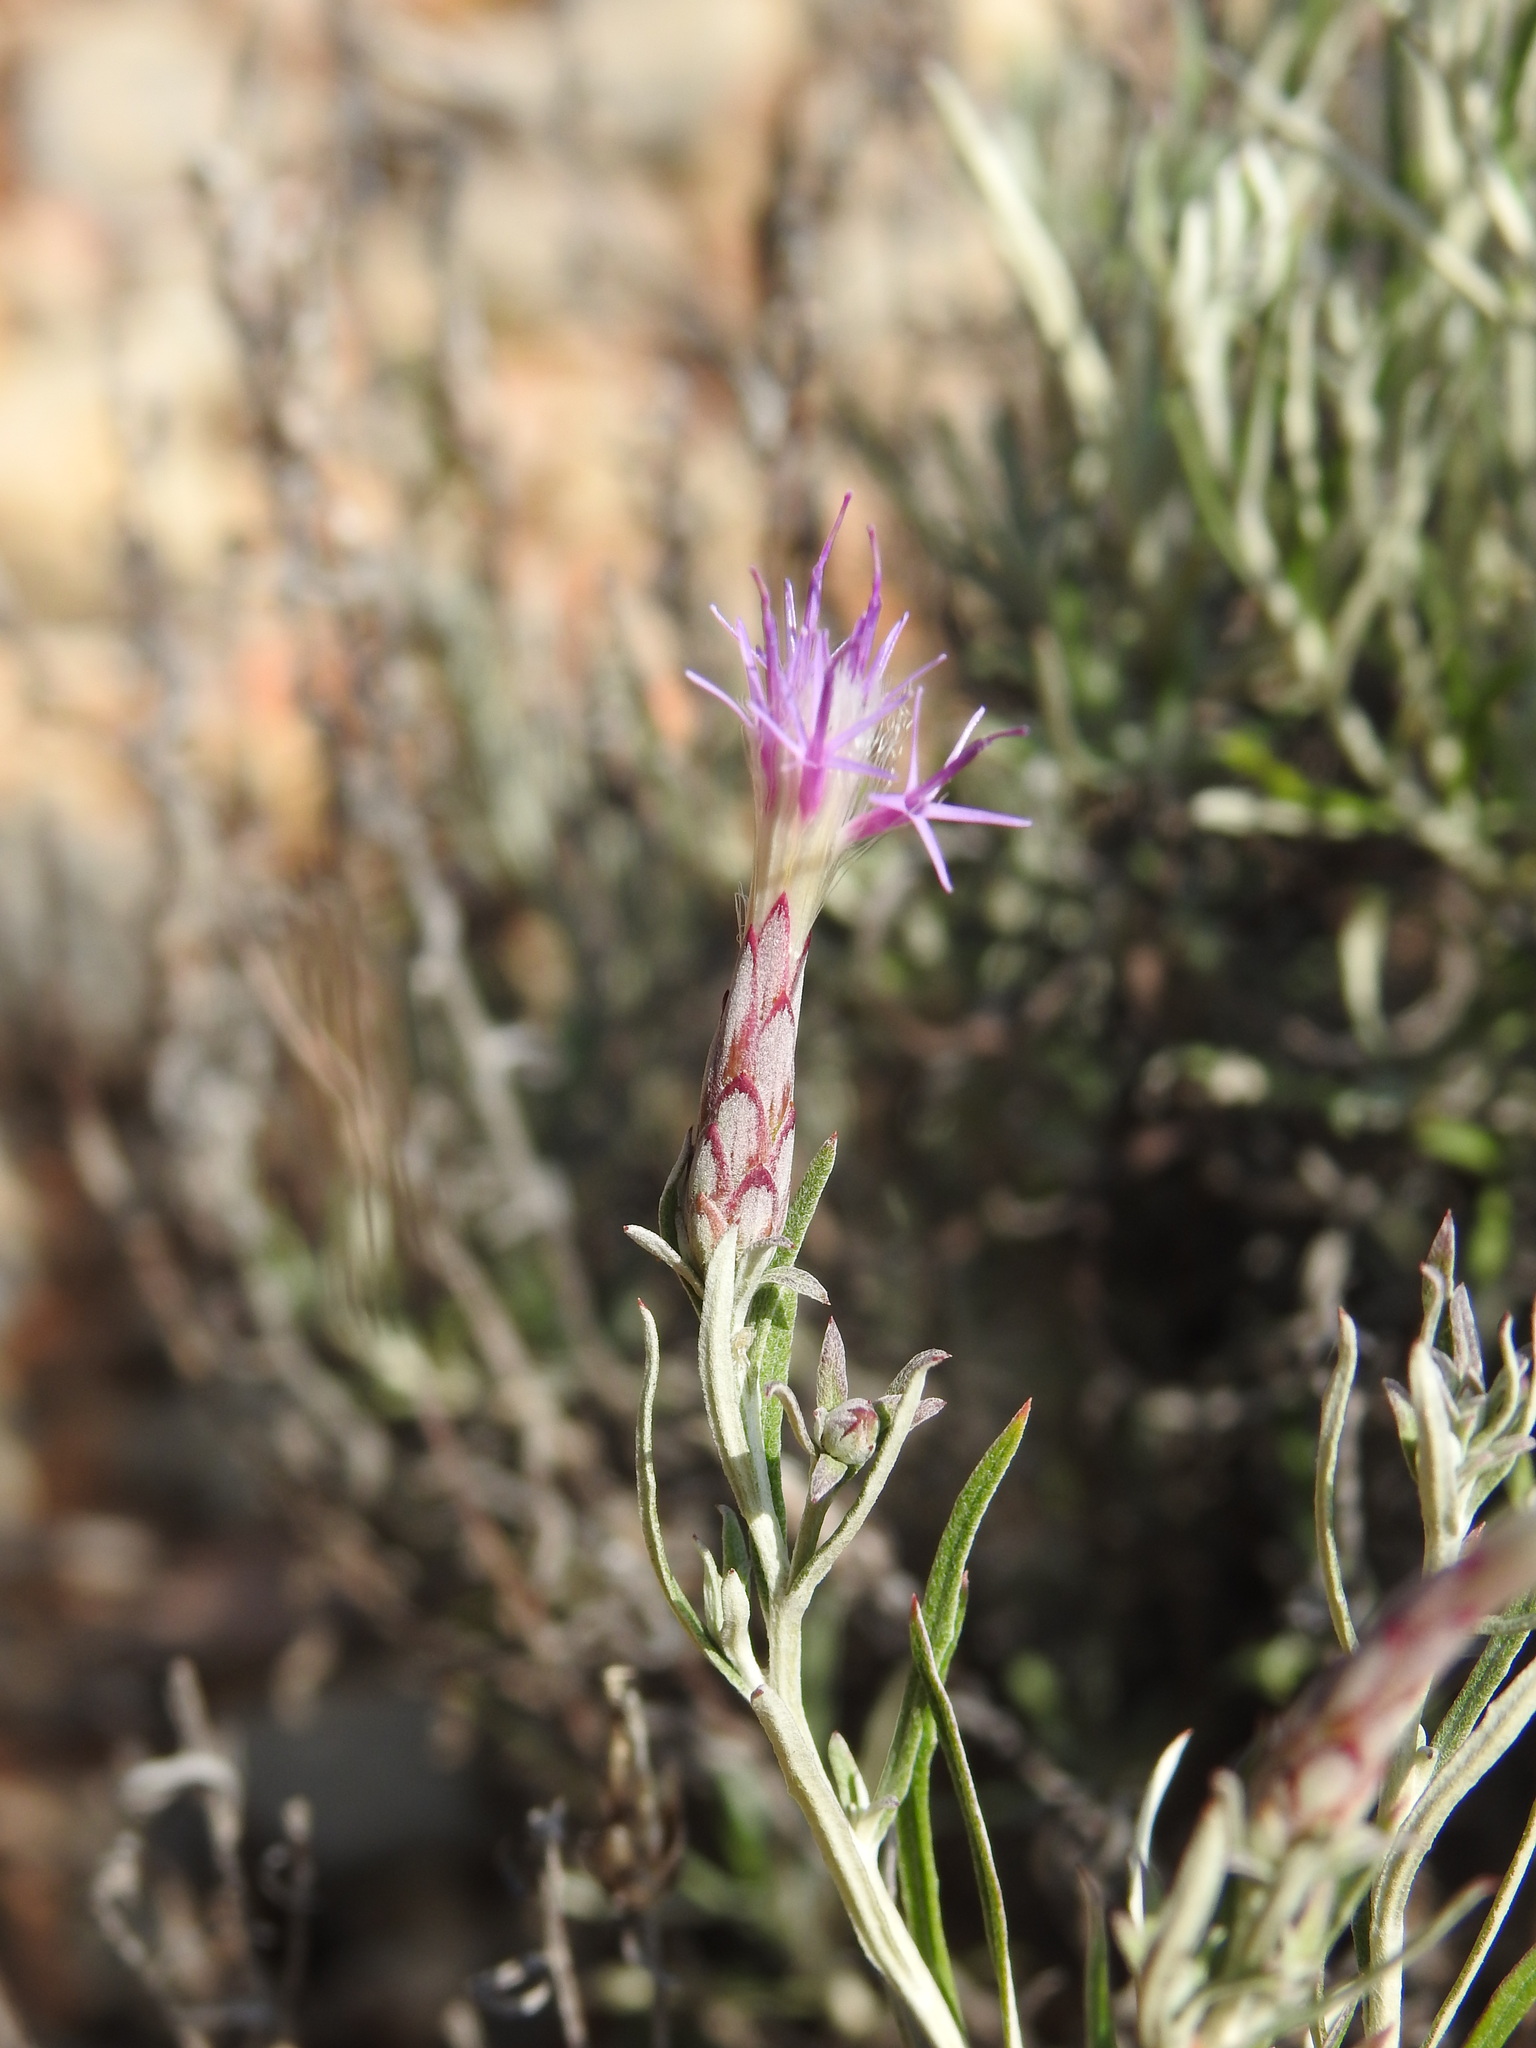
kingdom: Plantae
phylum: Tracheophyta
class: Magnoliopsida
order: Asterales
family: Asteraceae
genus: Staehelina
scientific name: Staehelina dubia
